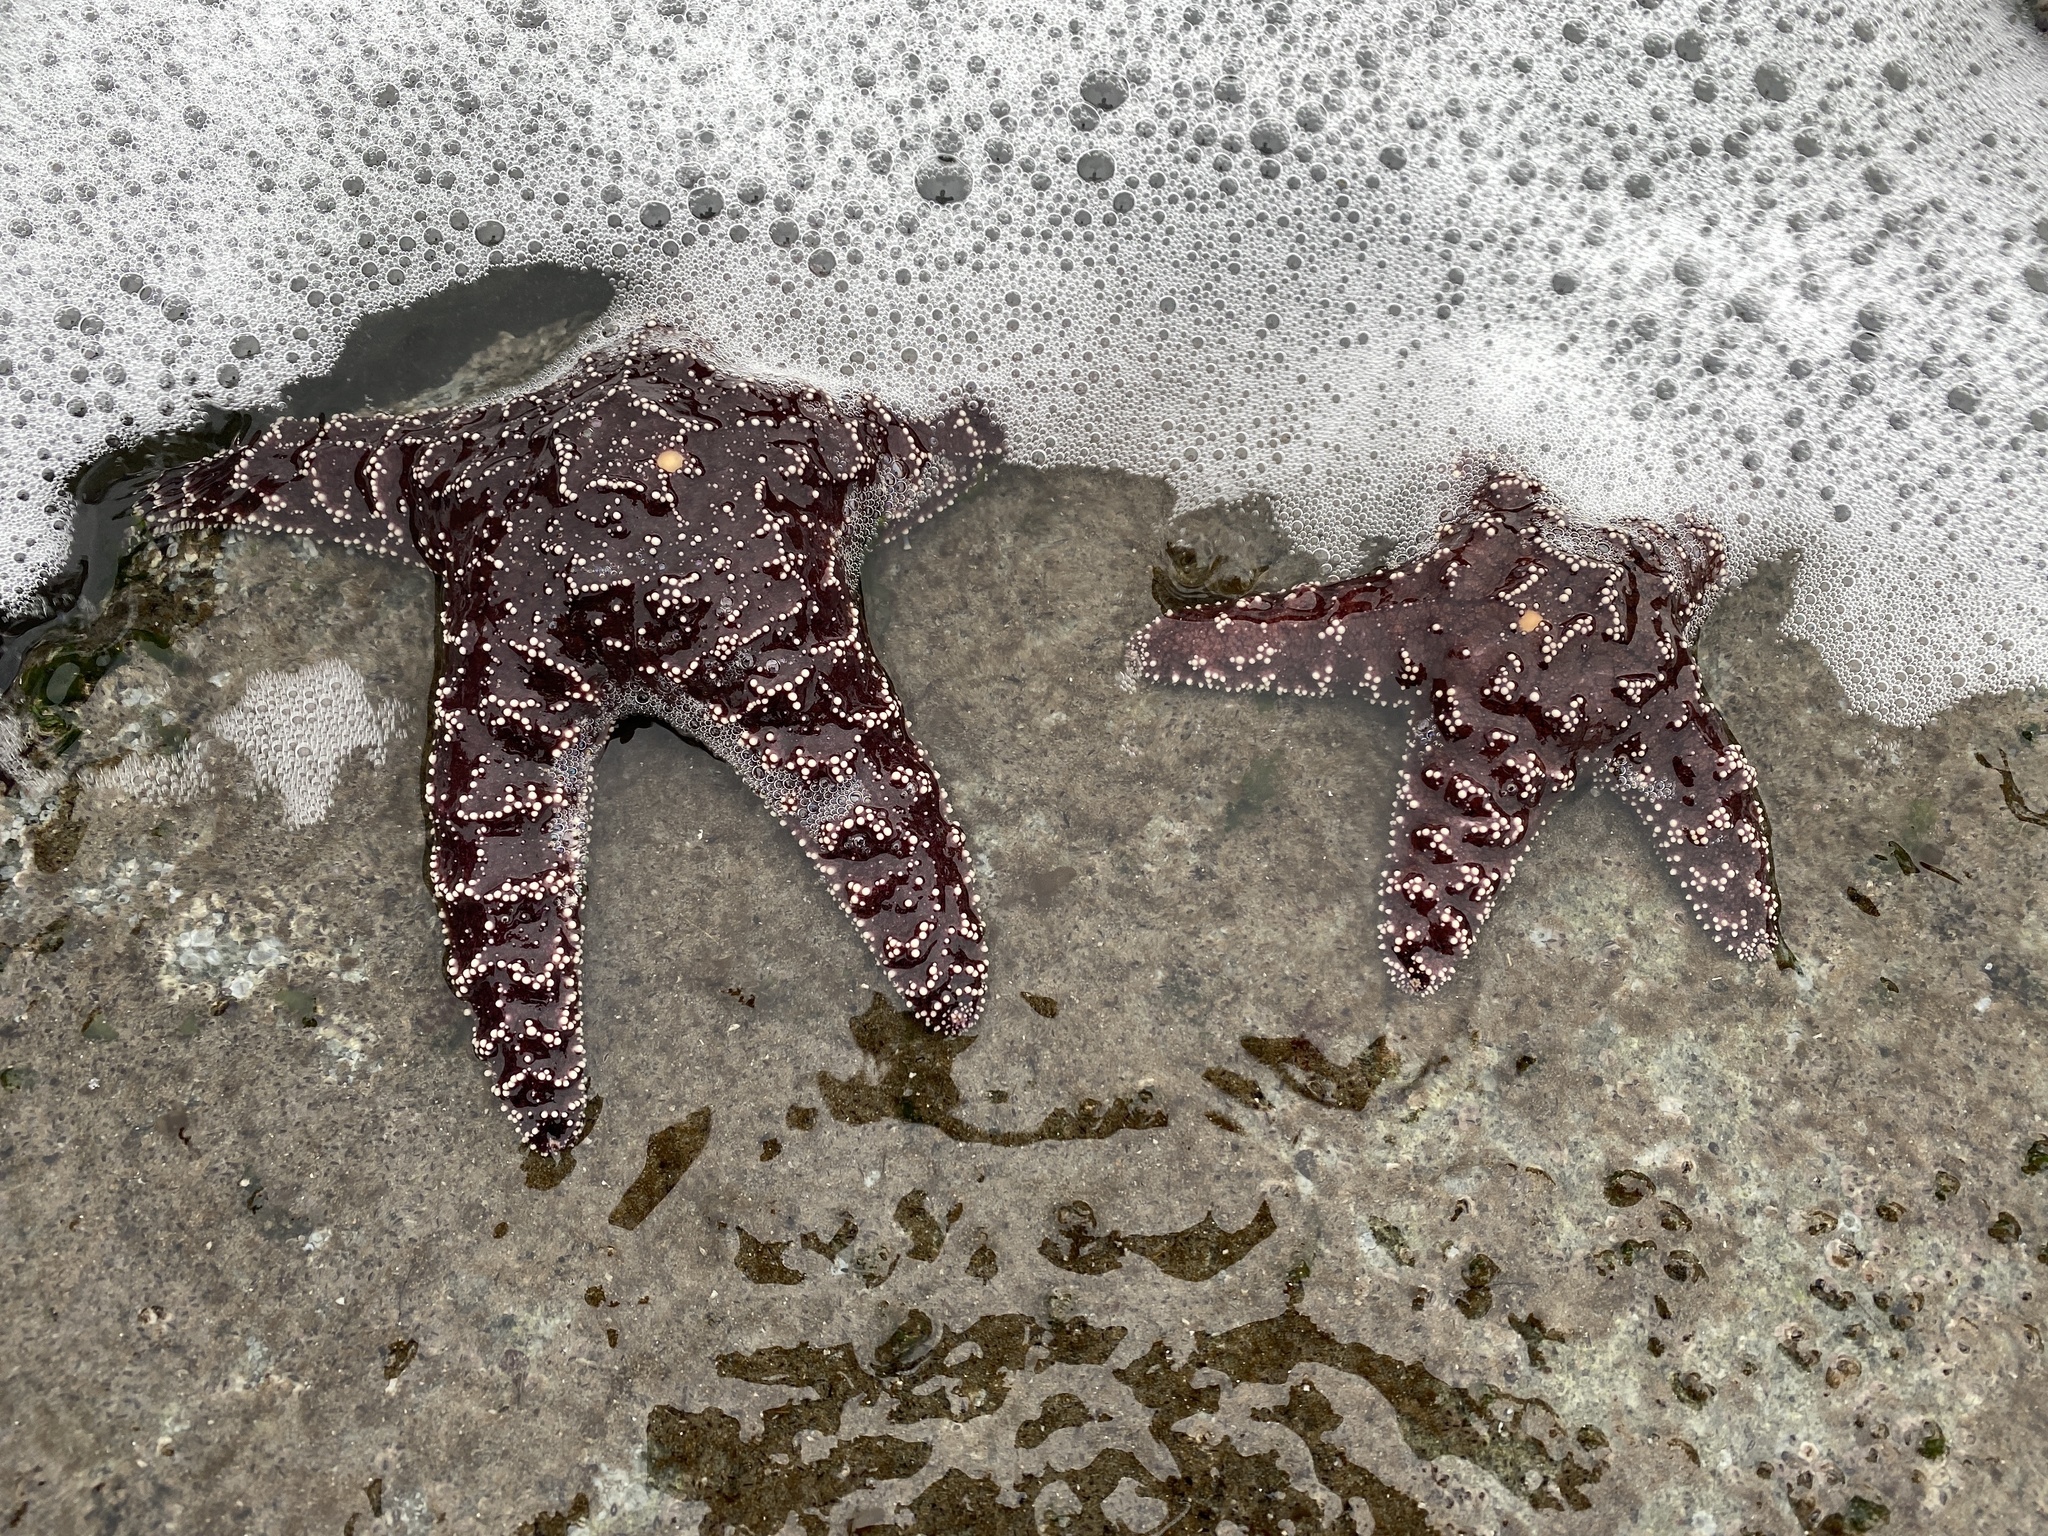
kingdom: Animalia
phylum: Echinodermata
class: Asteroidea
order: Forcipulatida
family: Asteriidae
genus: Pisaster
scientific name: Pisaster ochraceus
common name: Ochre stars
